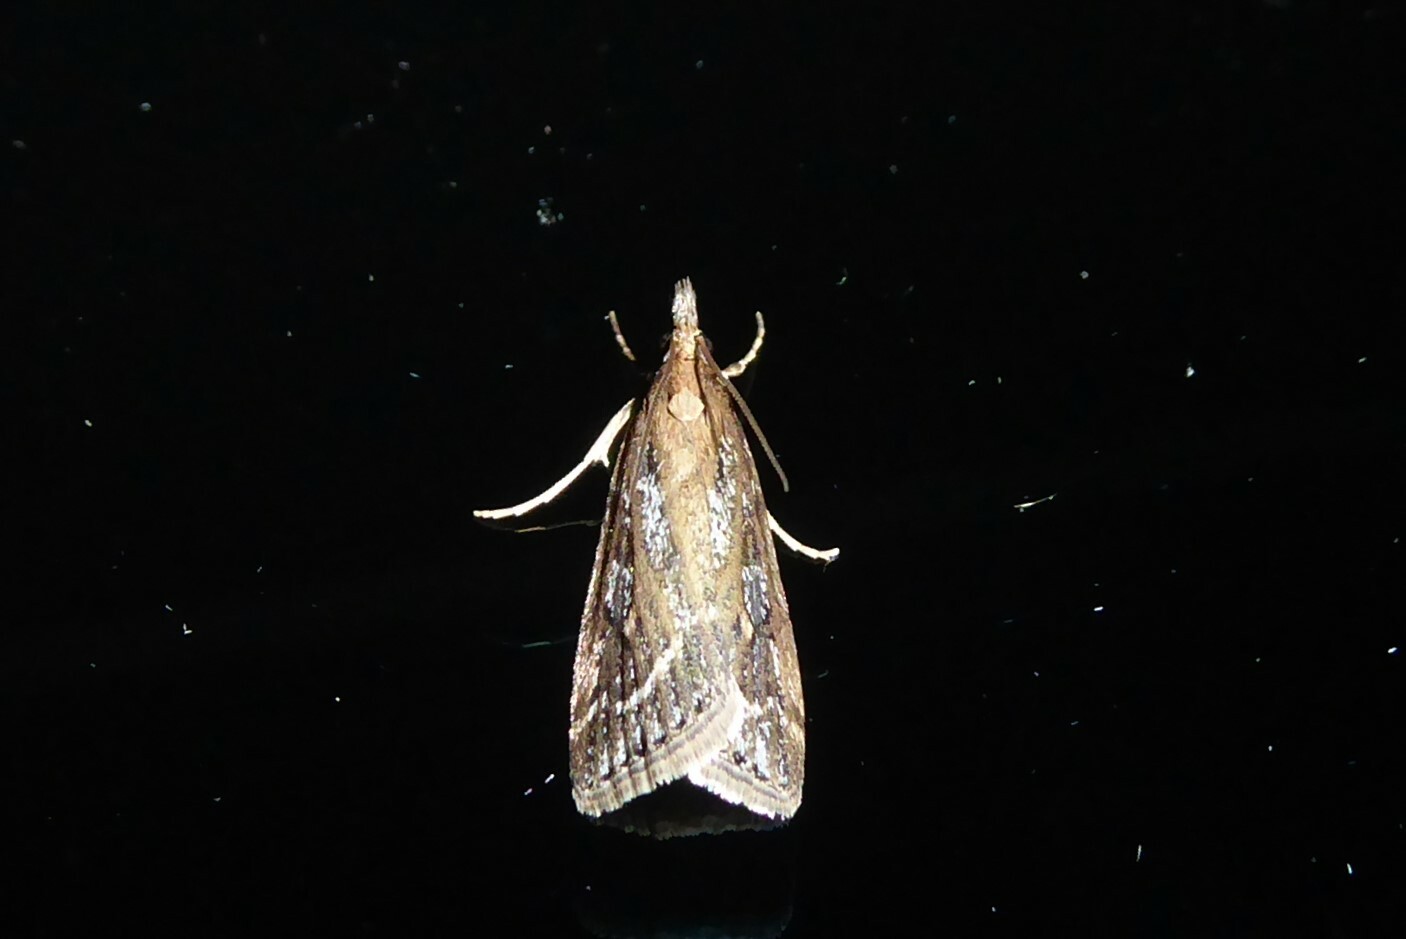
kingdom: Animalia
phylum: Arthropoda
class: Insecta
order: Lepidoptera
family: Crambidae
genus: Eudonia
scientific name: Eudonia octophora
